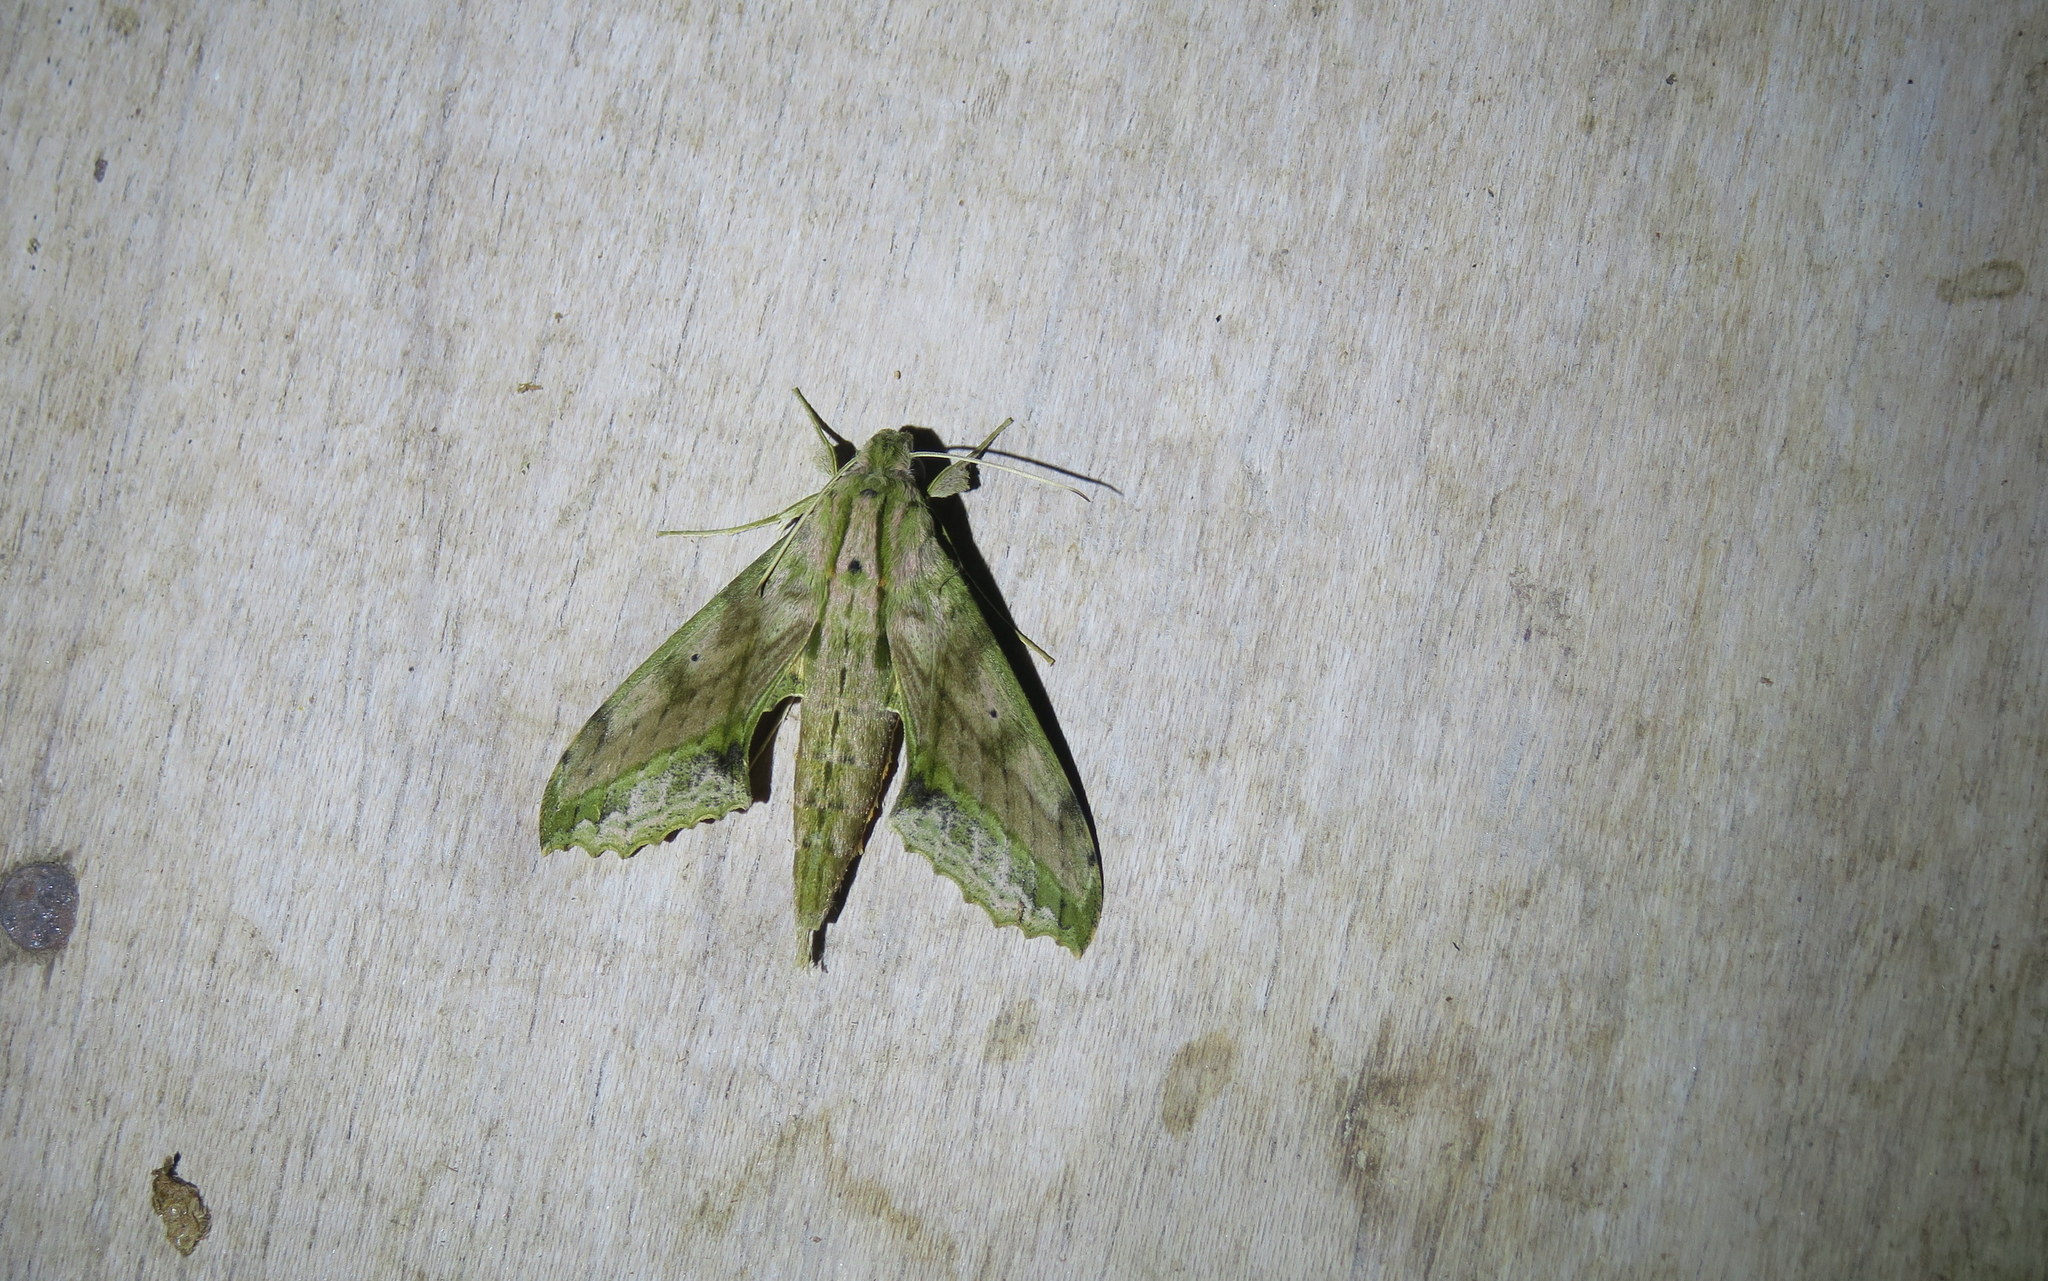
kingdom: Animalia
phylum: Arthropoda
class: Insecta
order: Lepidoptera
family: Sphingidae
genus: Xylophanes
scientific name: Xylophanes undata
